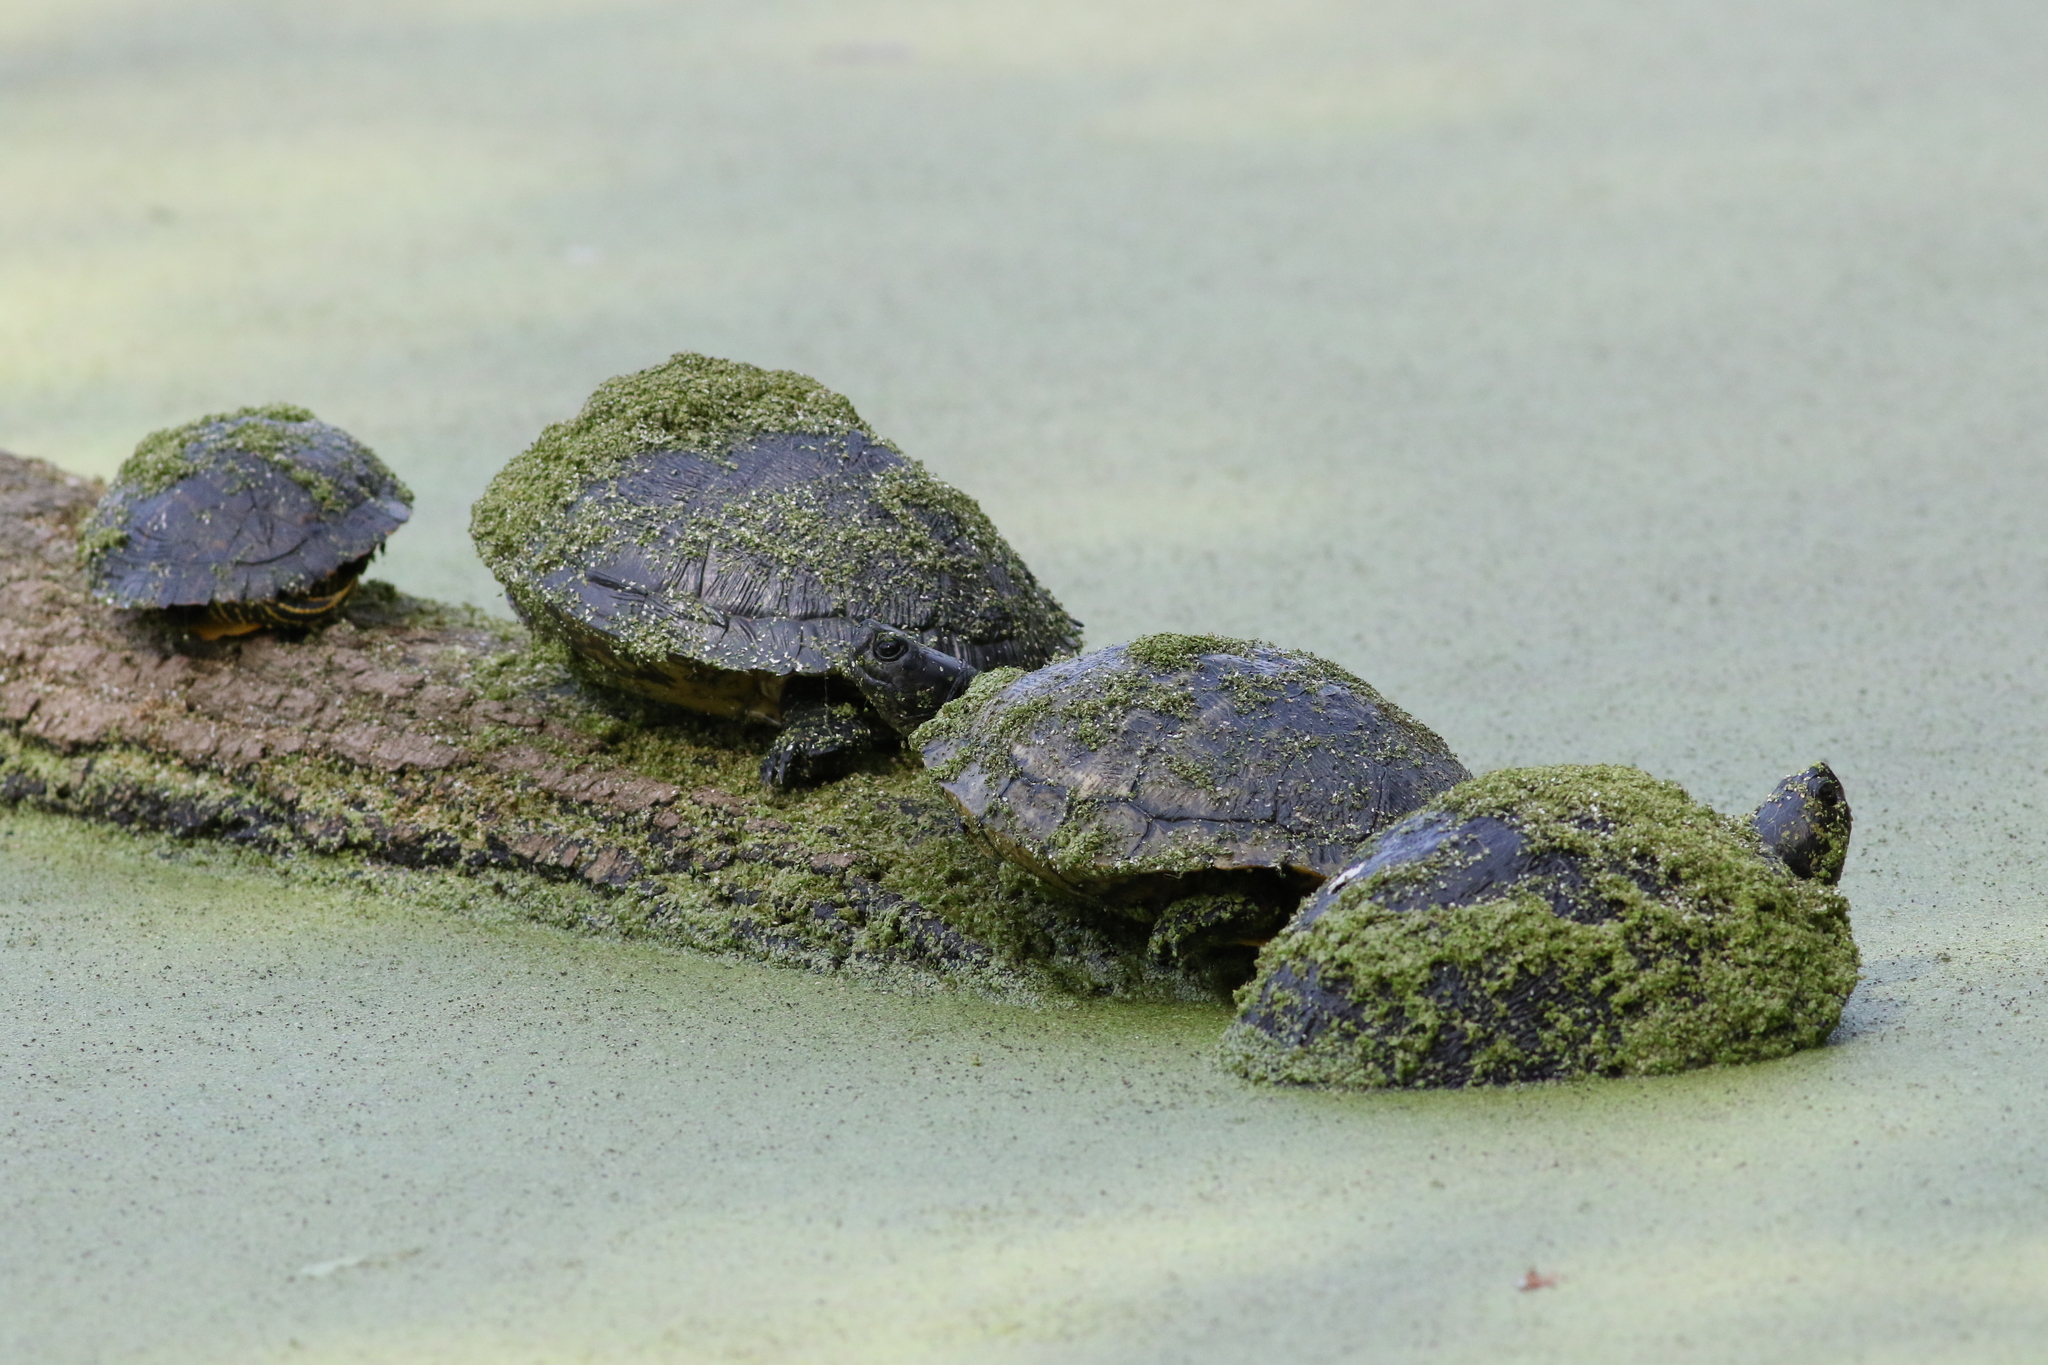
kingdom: Animalia
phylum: Chordata
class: Testudines
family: Emydidae
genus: Trachemys
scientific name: Trachemys scripta
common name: Slider
